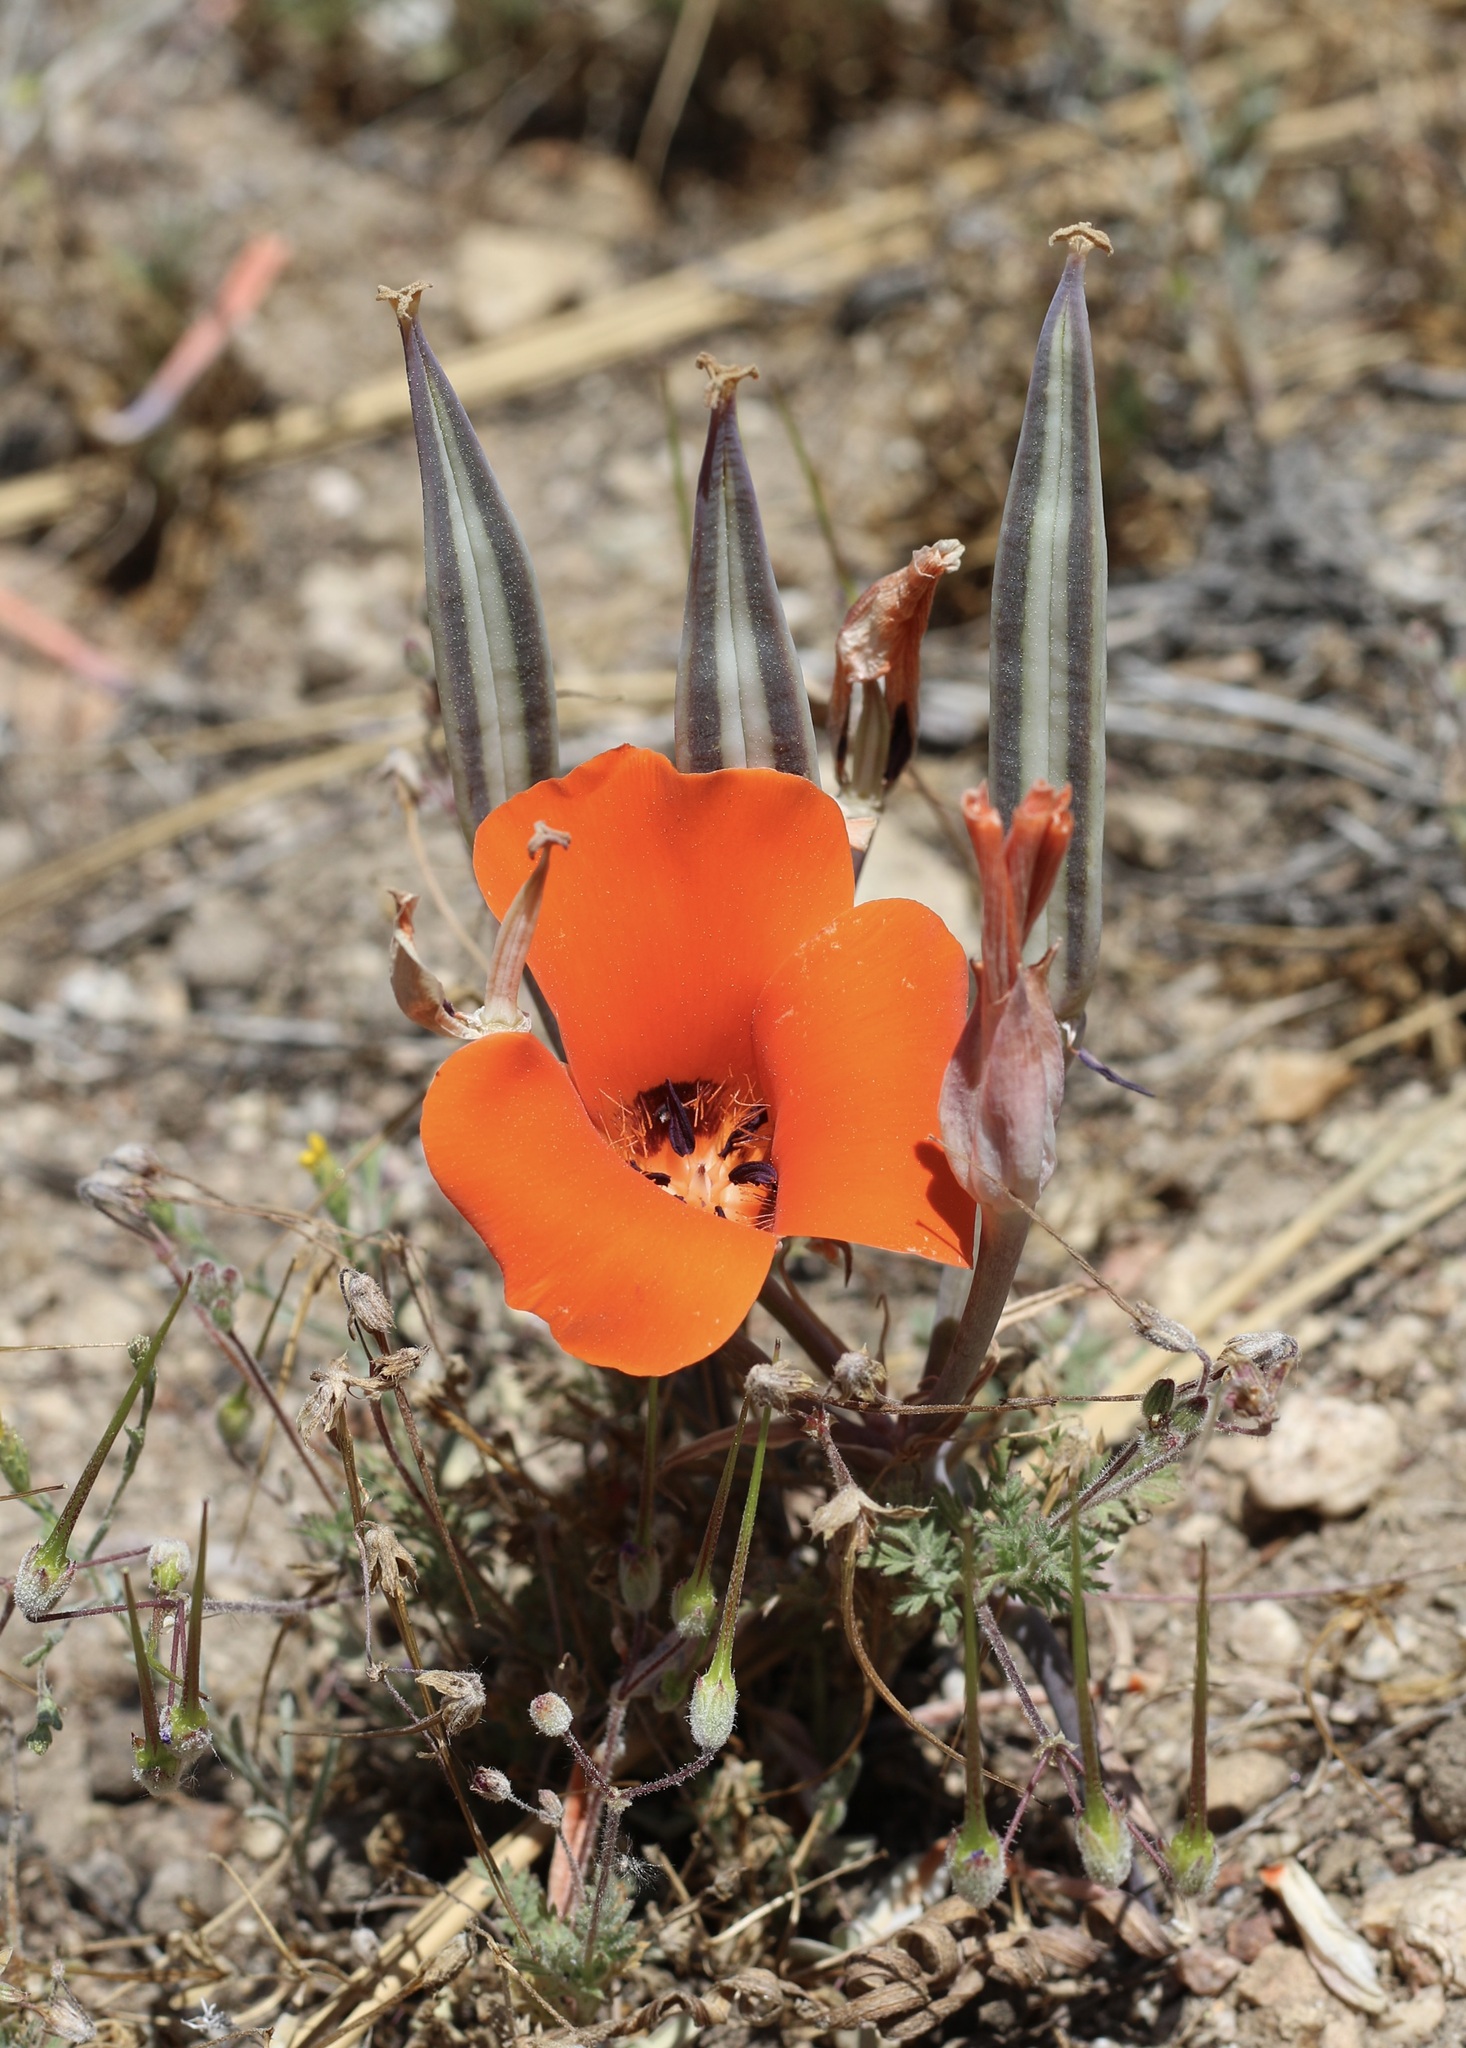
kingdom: Plantae
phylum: Tracheophyta
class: Liliopsida
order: Liliales
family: Liliaceae
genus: Calochortus
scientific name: Calochortus kennedyi
